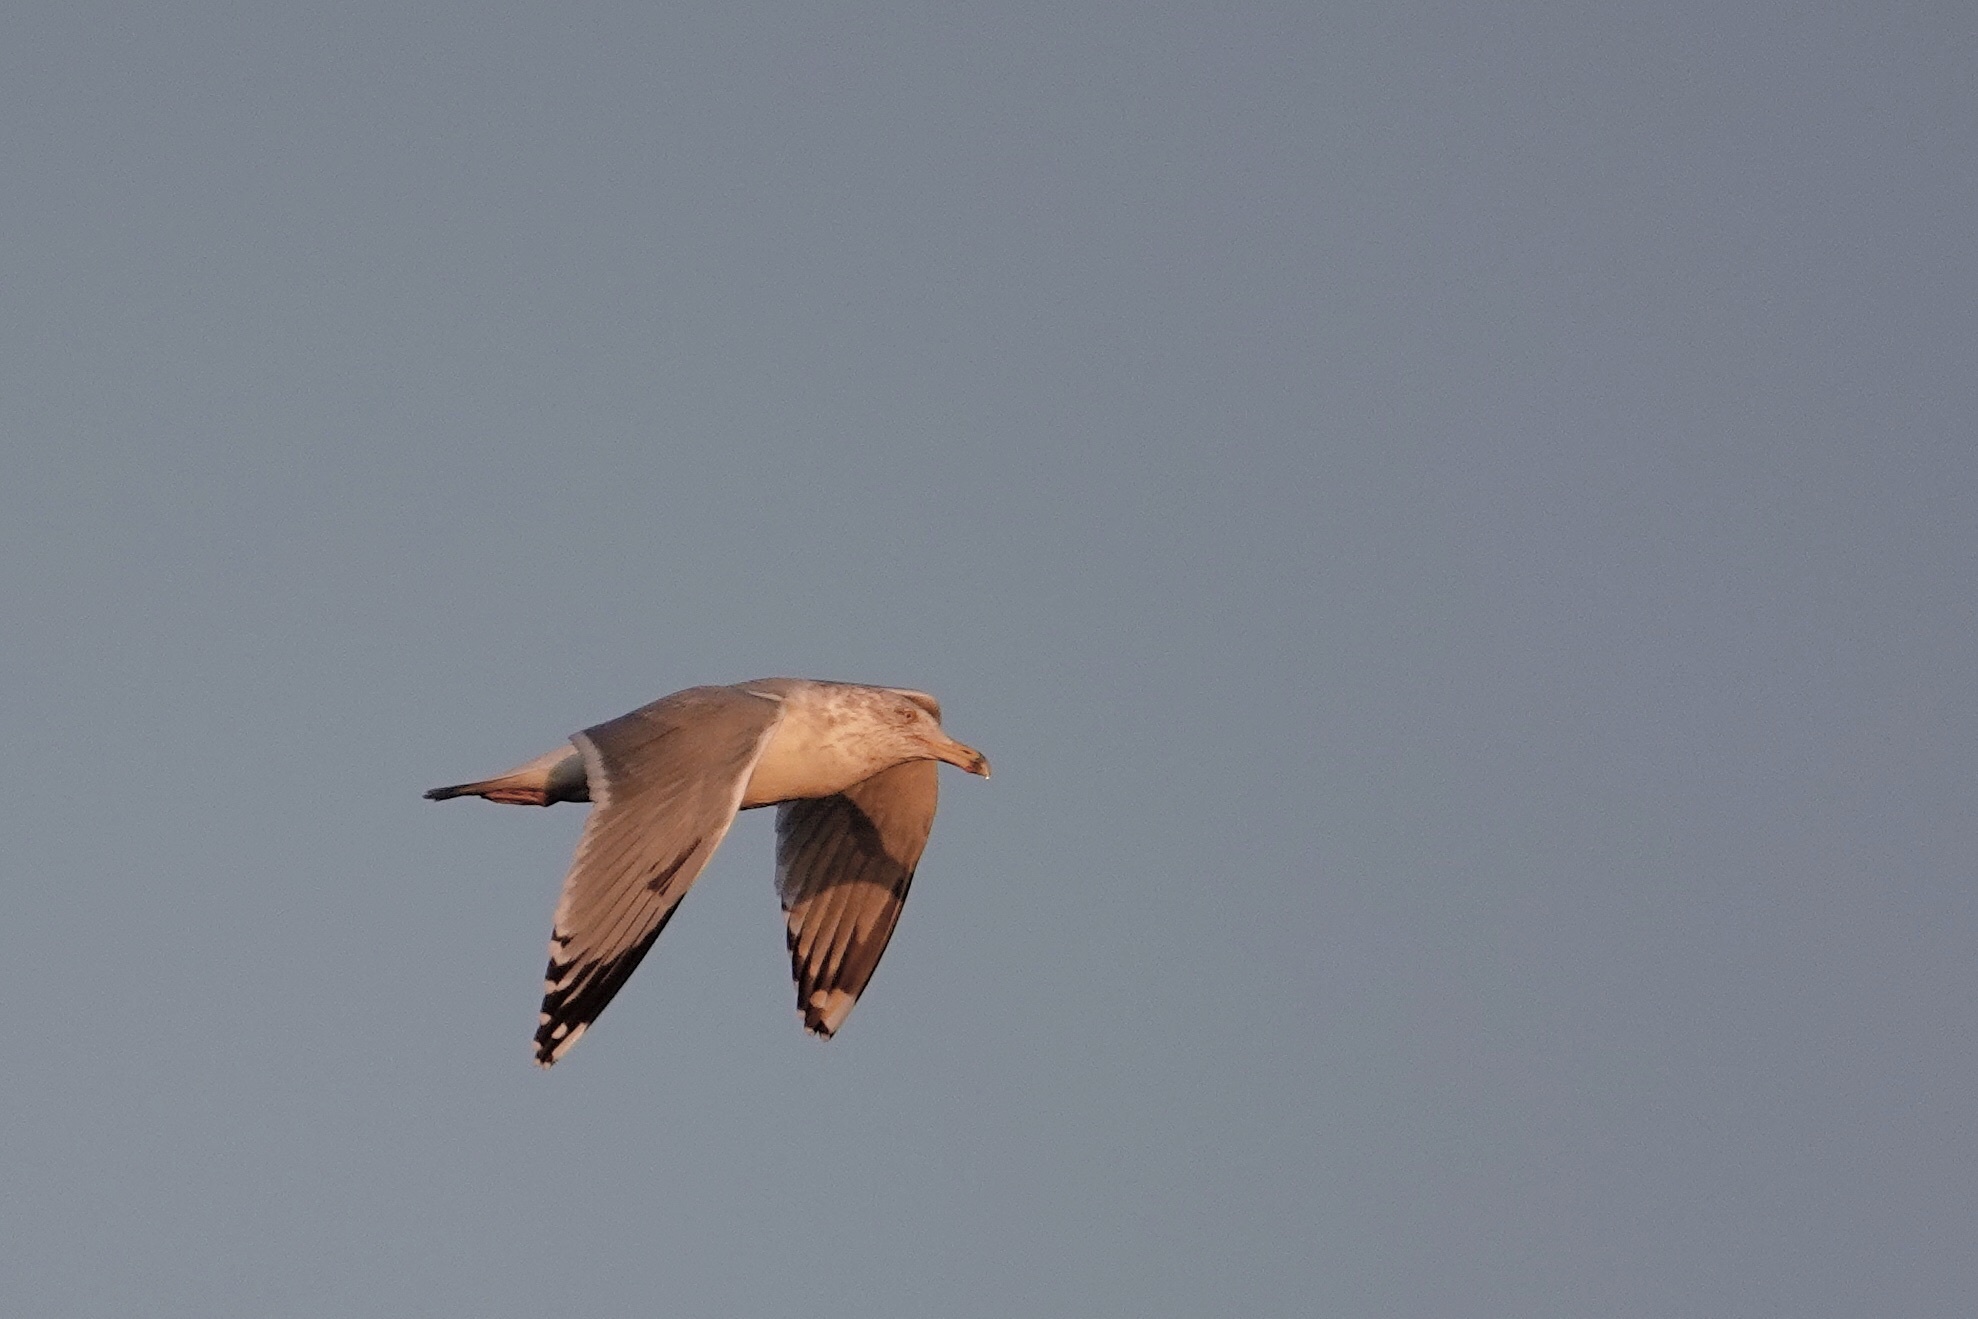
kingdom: Animalia
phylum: Chordata
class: Aves
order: Charadriiformes
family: Laridae
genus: Larus
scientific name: Larus argentatus
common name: Herring gull
